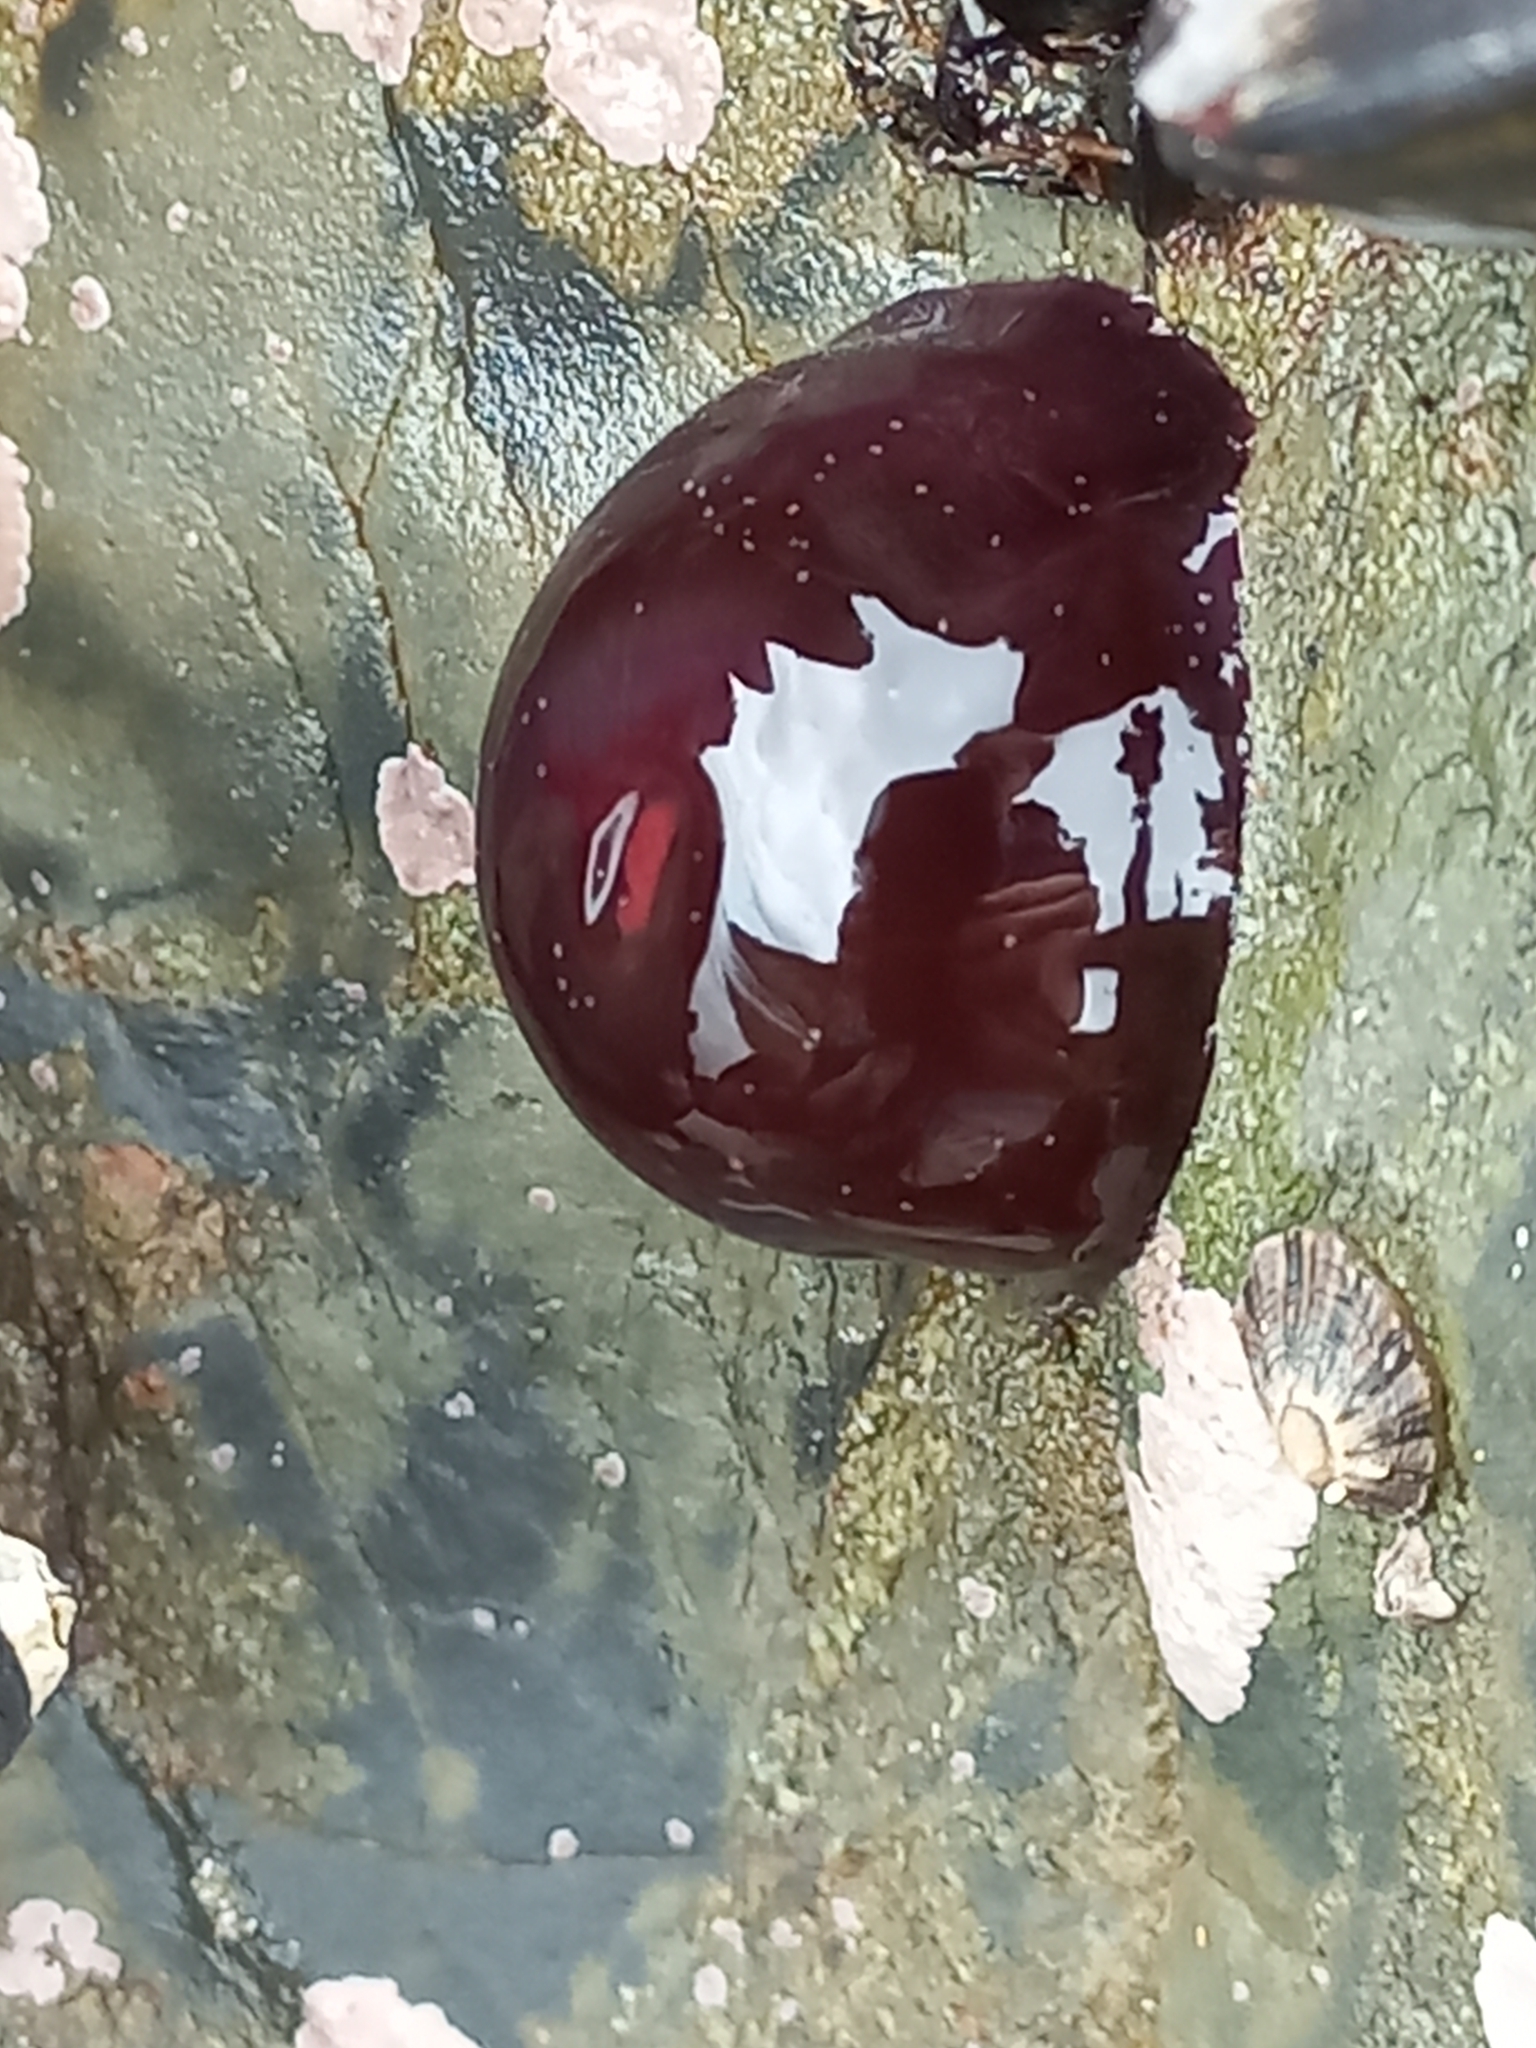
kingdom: Animalia
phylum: Cnidaria
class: Anthozoa
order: Actiniaria
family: Actiniidae
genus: Actinia
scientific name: Actinia tenebrosa
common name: Waratah anemone
